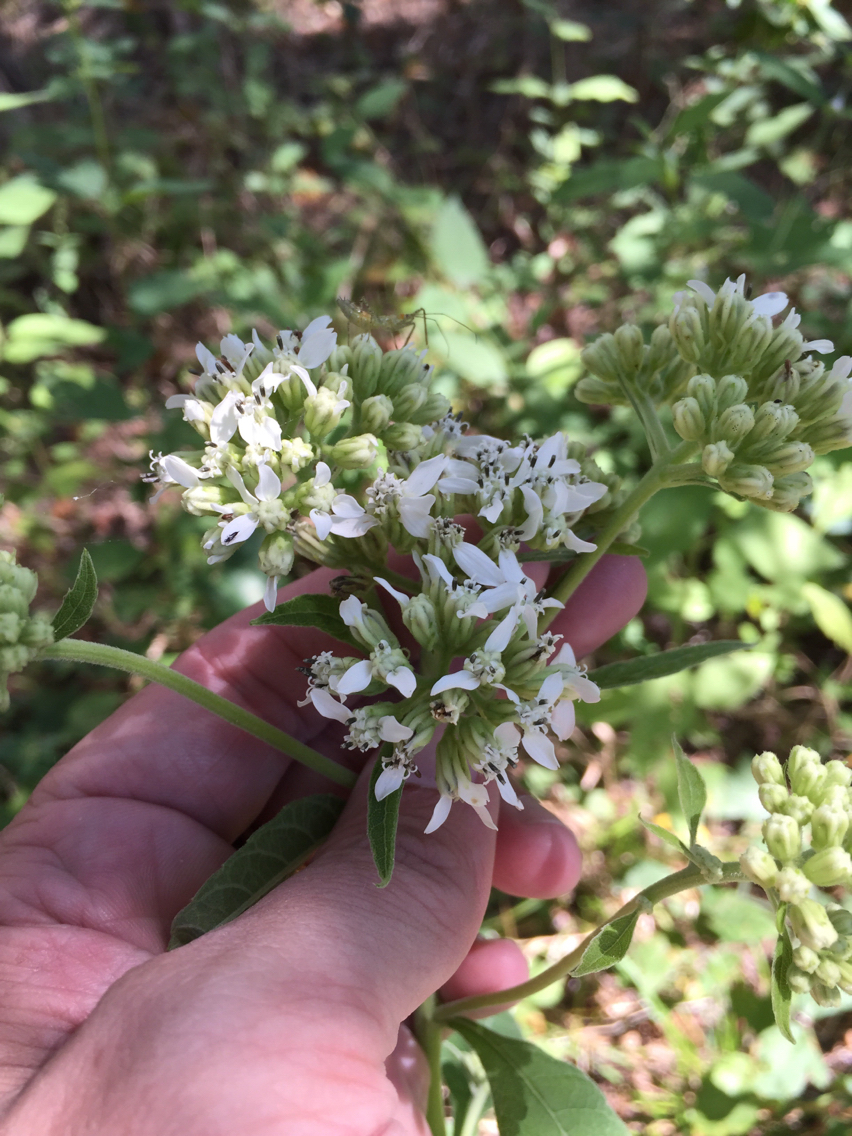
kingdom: Plantae
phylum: Tracheophyta
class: Magnoliopsida
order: Asterales
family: Asteraceae
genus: Verbesina
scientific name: Verbesina virginica
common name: Frostweed
